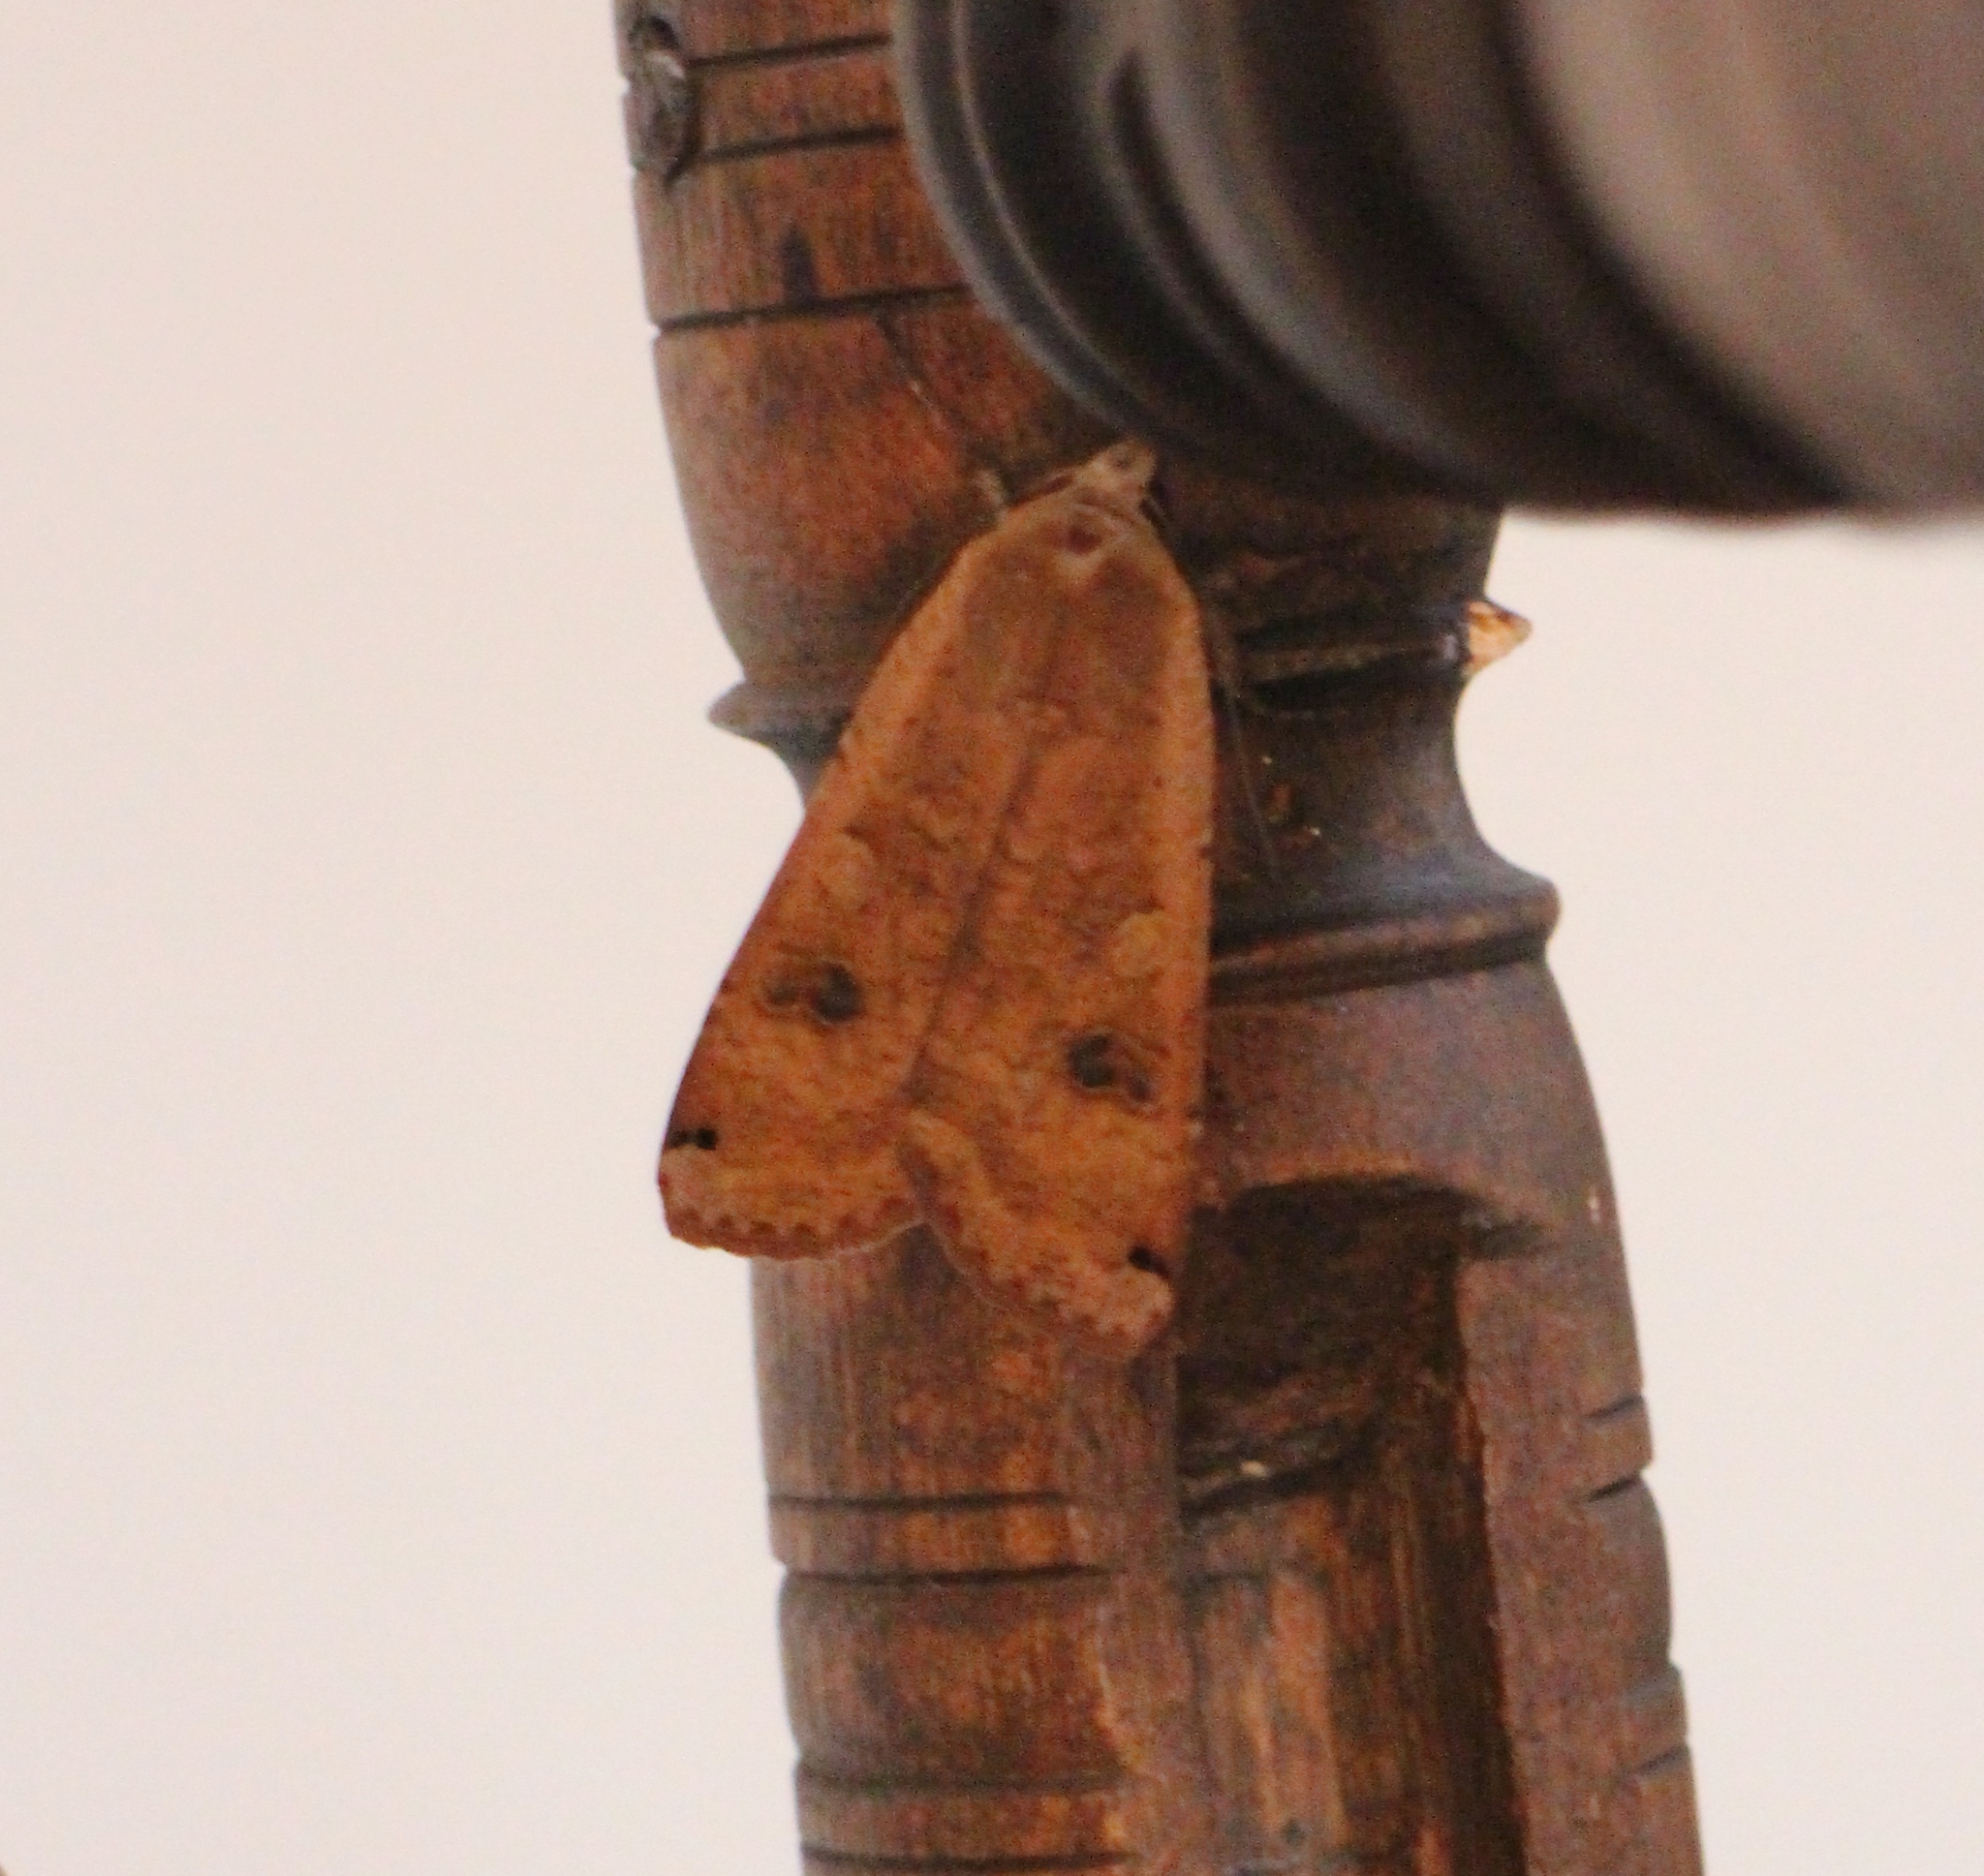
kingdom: Animalia
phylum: Arthropoda
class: Insecta
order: Lepidoptera
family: Noctuidae
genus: Noctua
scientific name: Noctua pronuba
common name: Large yellow underwing
